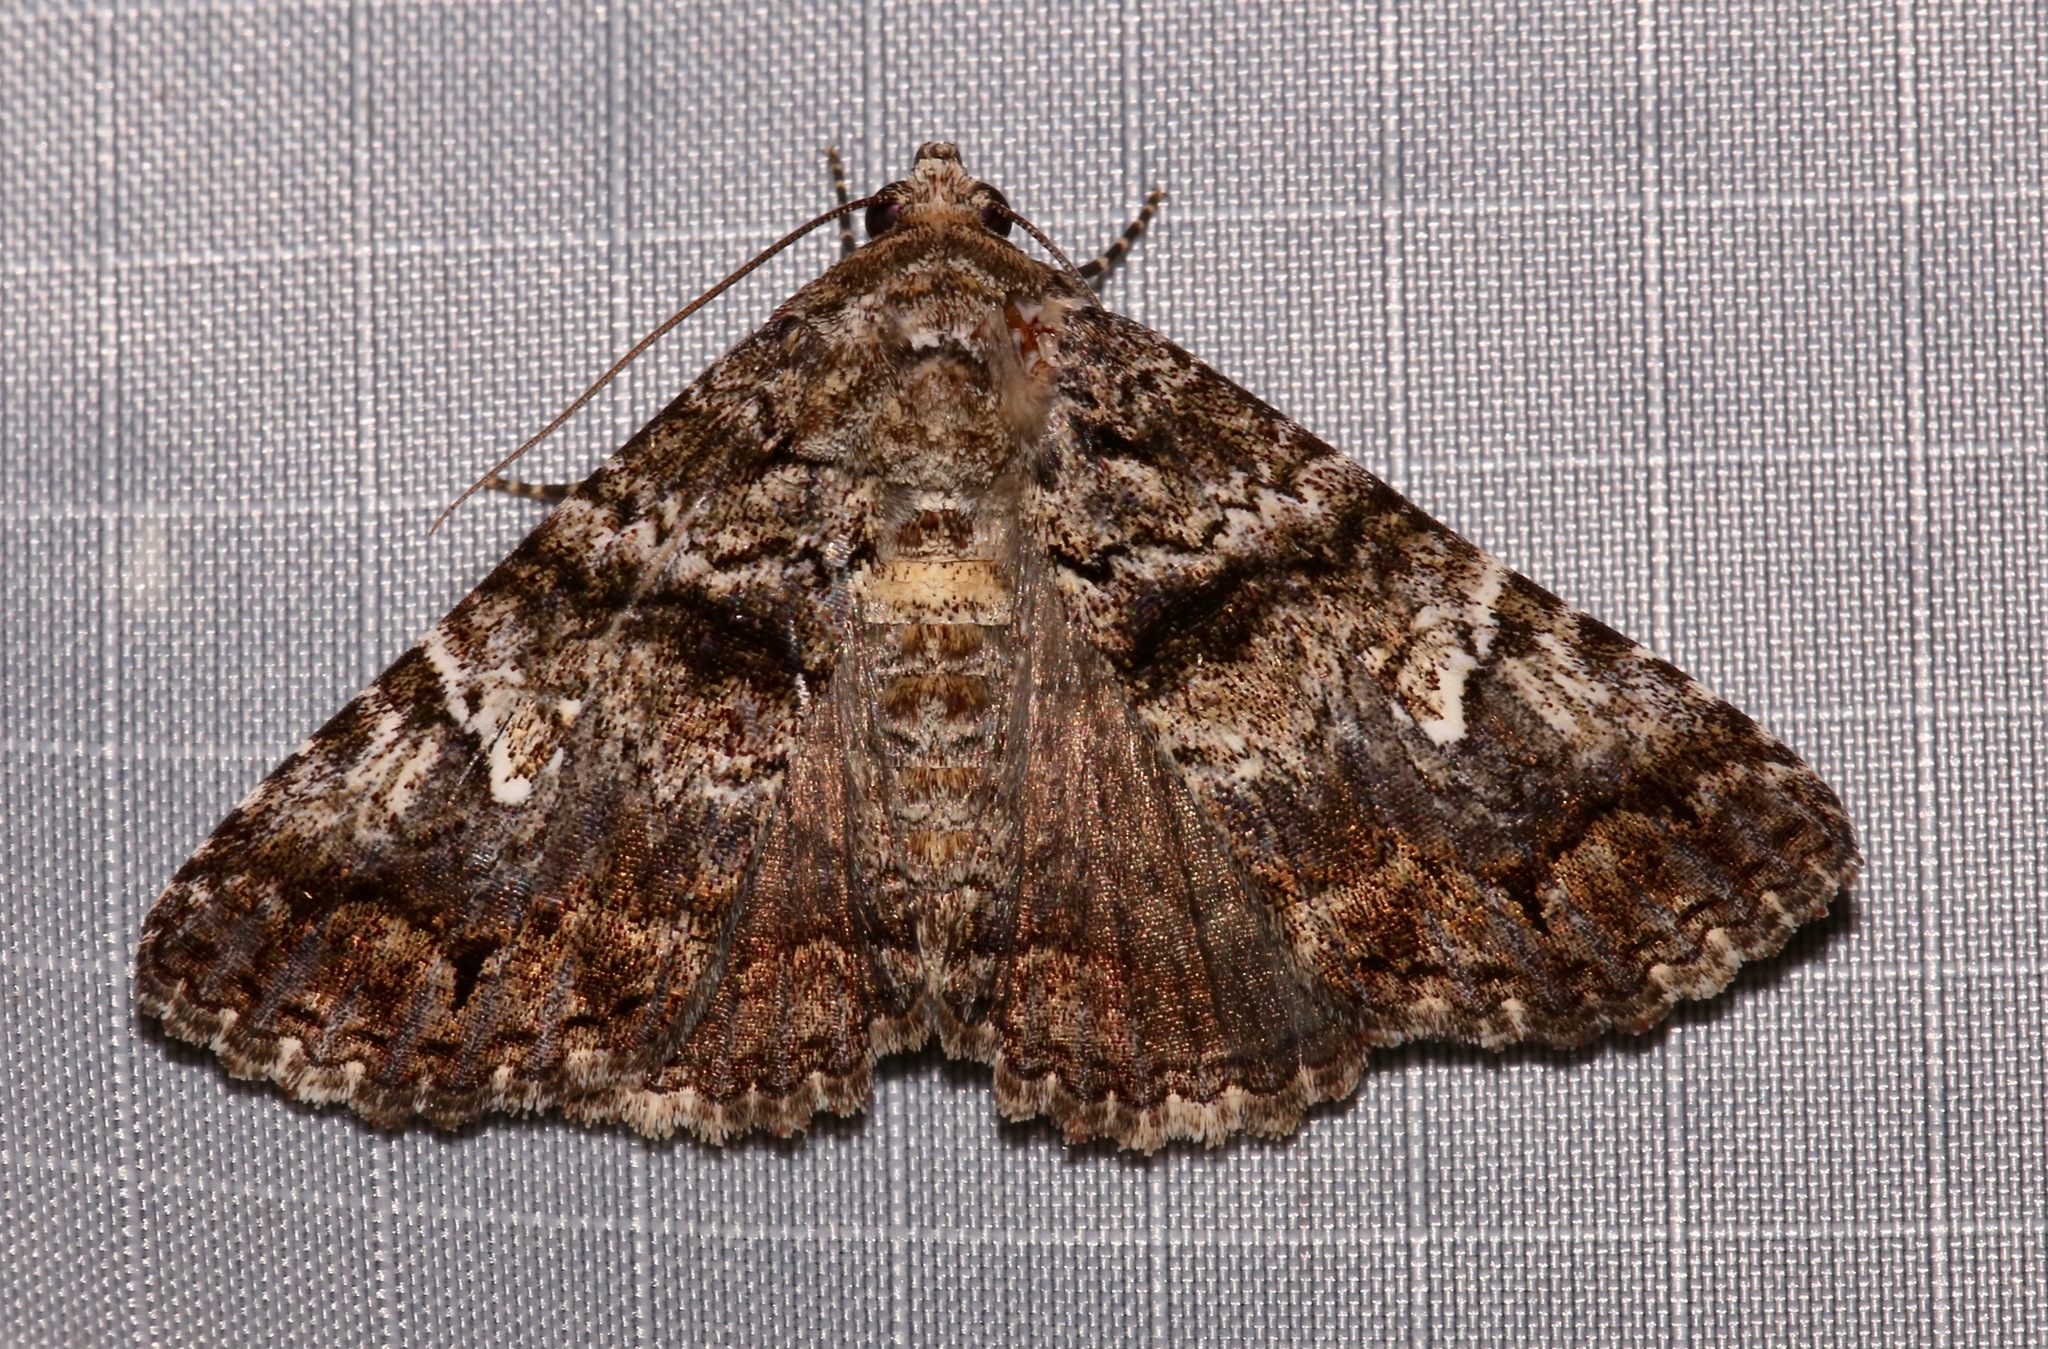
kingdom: Animalia
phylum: Arthropoda
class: Insecta
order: Lepidoptera
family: Erebidae
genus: Metria
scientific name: Metria amella
